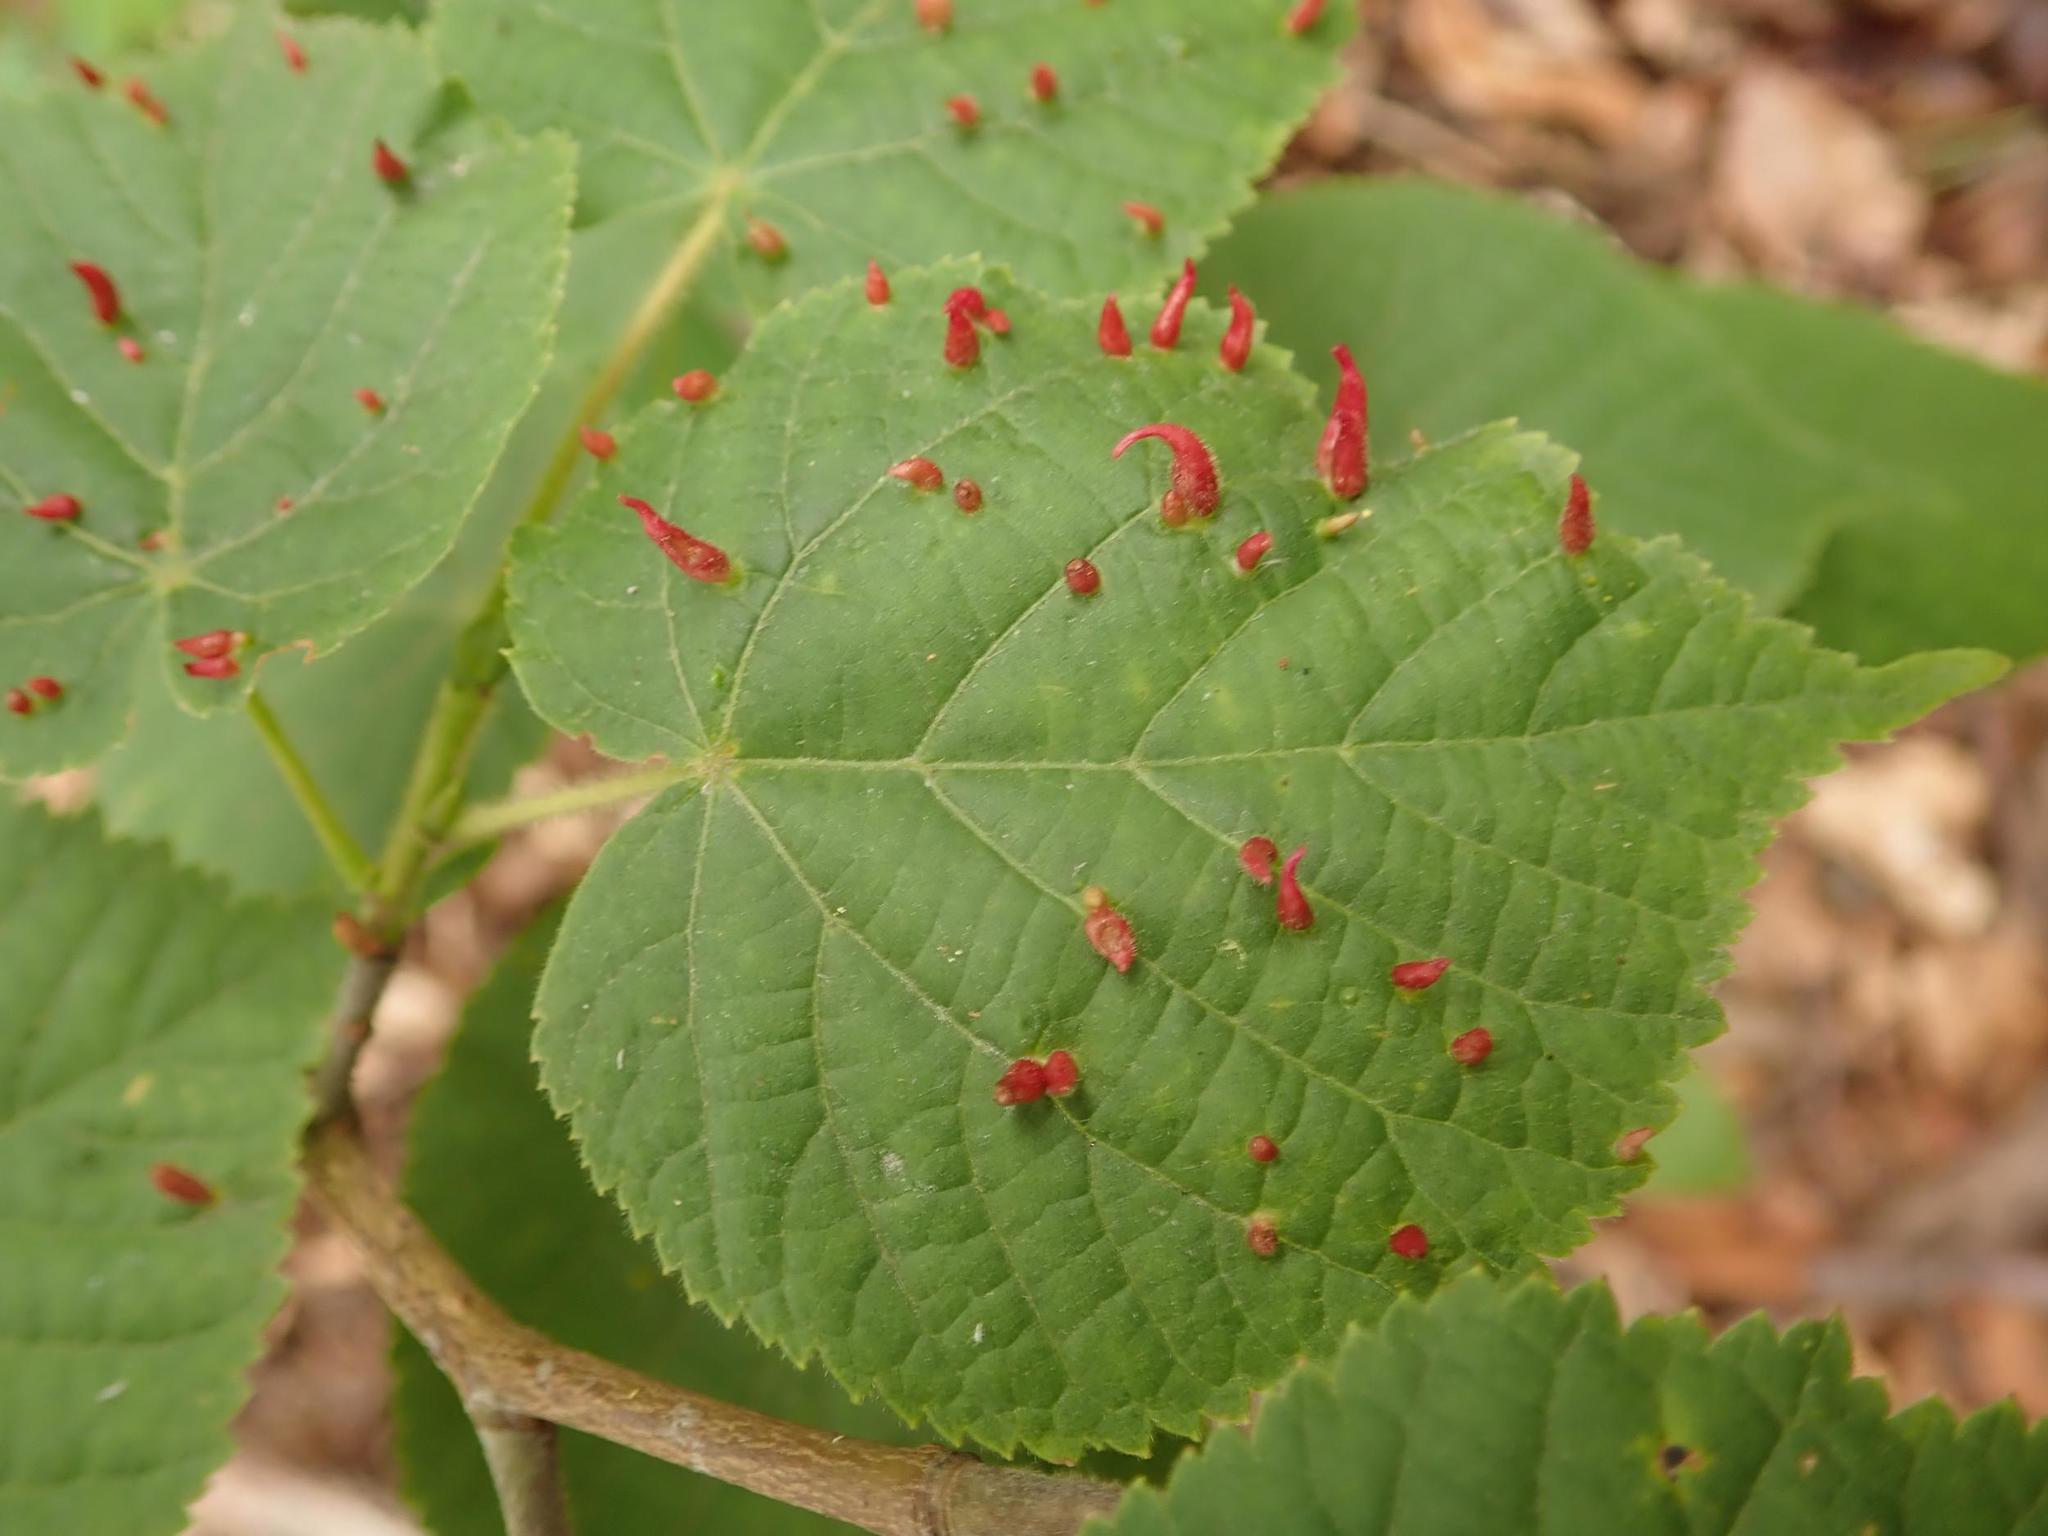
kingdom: Animalia
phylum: Arthropoda
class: Arachnida
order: Trombidiformes
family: Eriophyidae
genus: Eriophyes
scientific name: Eriophyes tiliae
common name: Red nail gall mite
